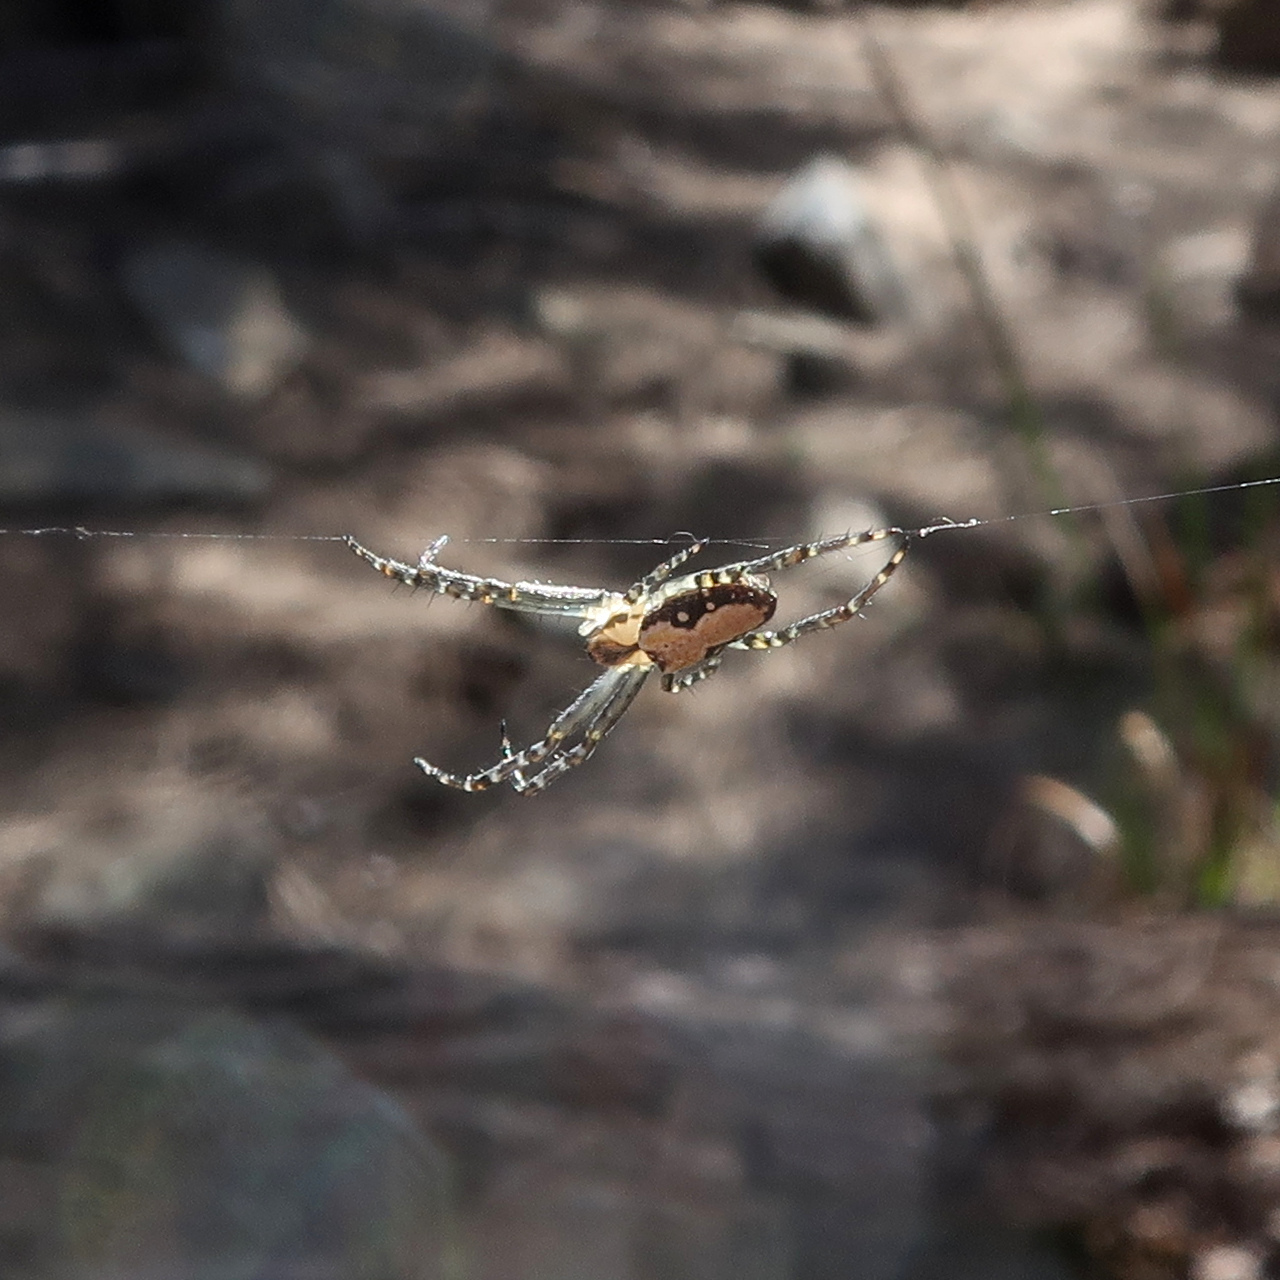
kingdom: Animalia
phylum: Arthropoda
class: Arachnida
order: Araneae
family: Araneidae
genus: Plebs
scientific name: Plebs bradleyi
